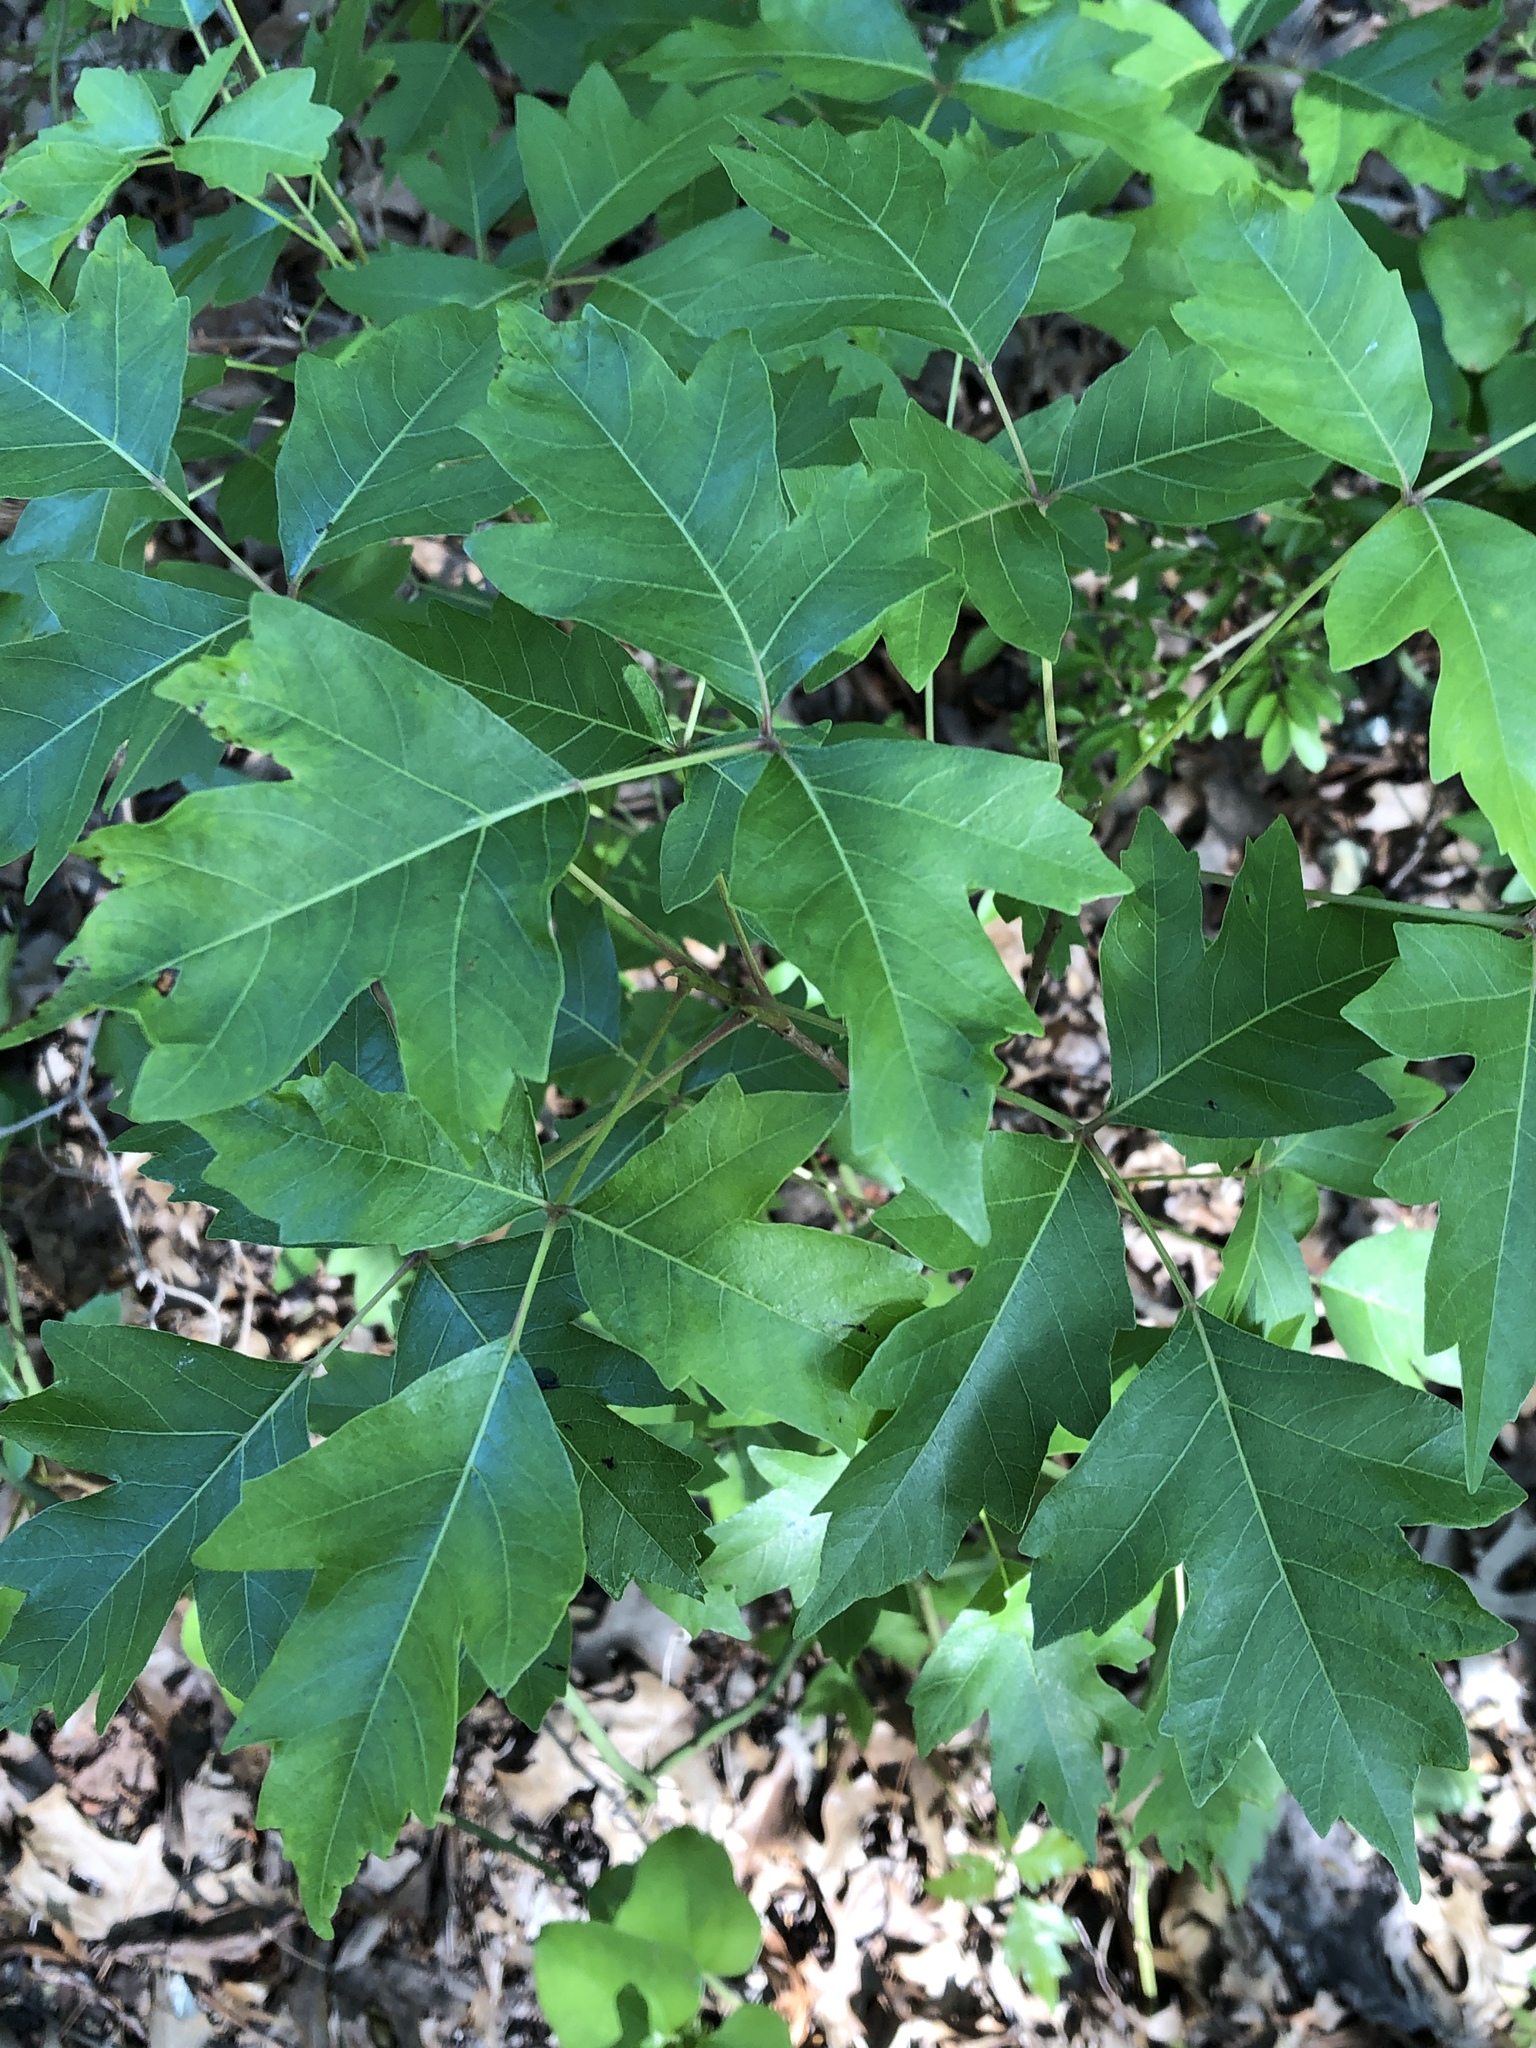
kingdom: Plantae
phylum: Tracheophyta
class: Magnoliopsida
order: Sapindales
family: Anacardiaceae
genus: Toxicodendron
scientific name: Toxicodendron radicans
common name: Poison ivy
